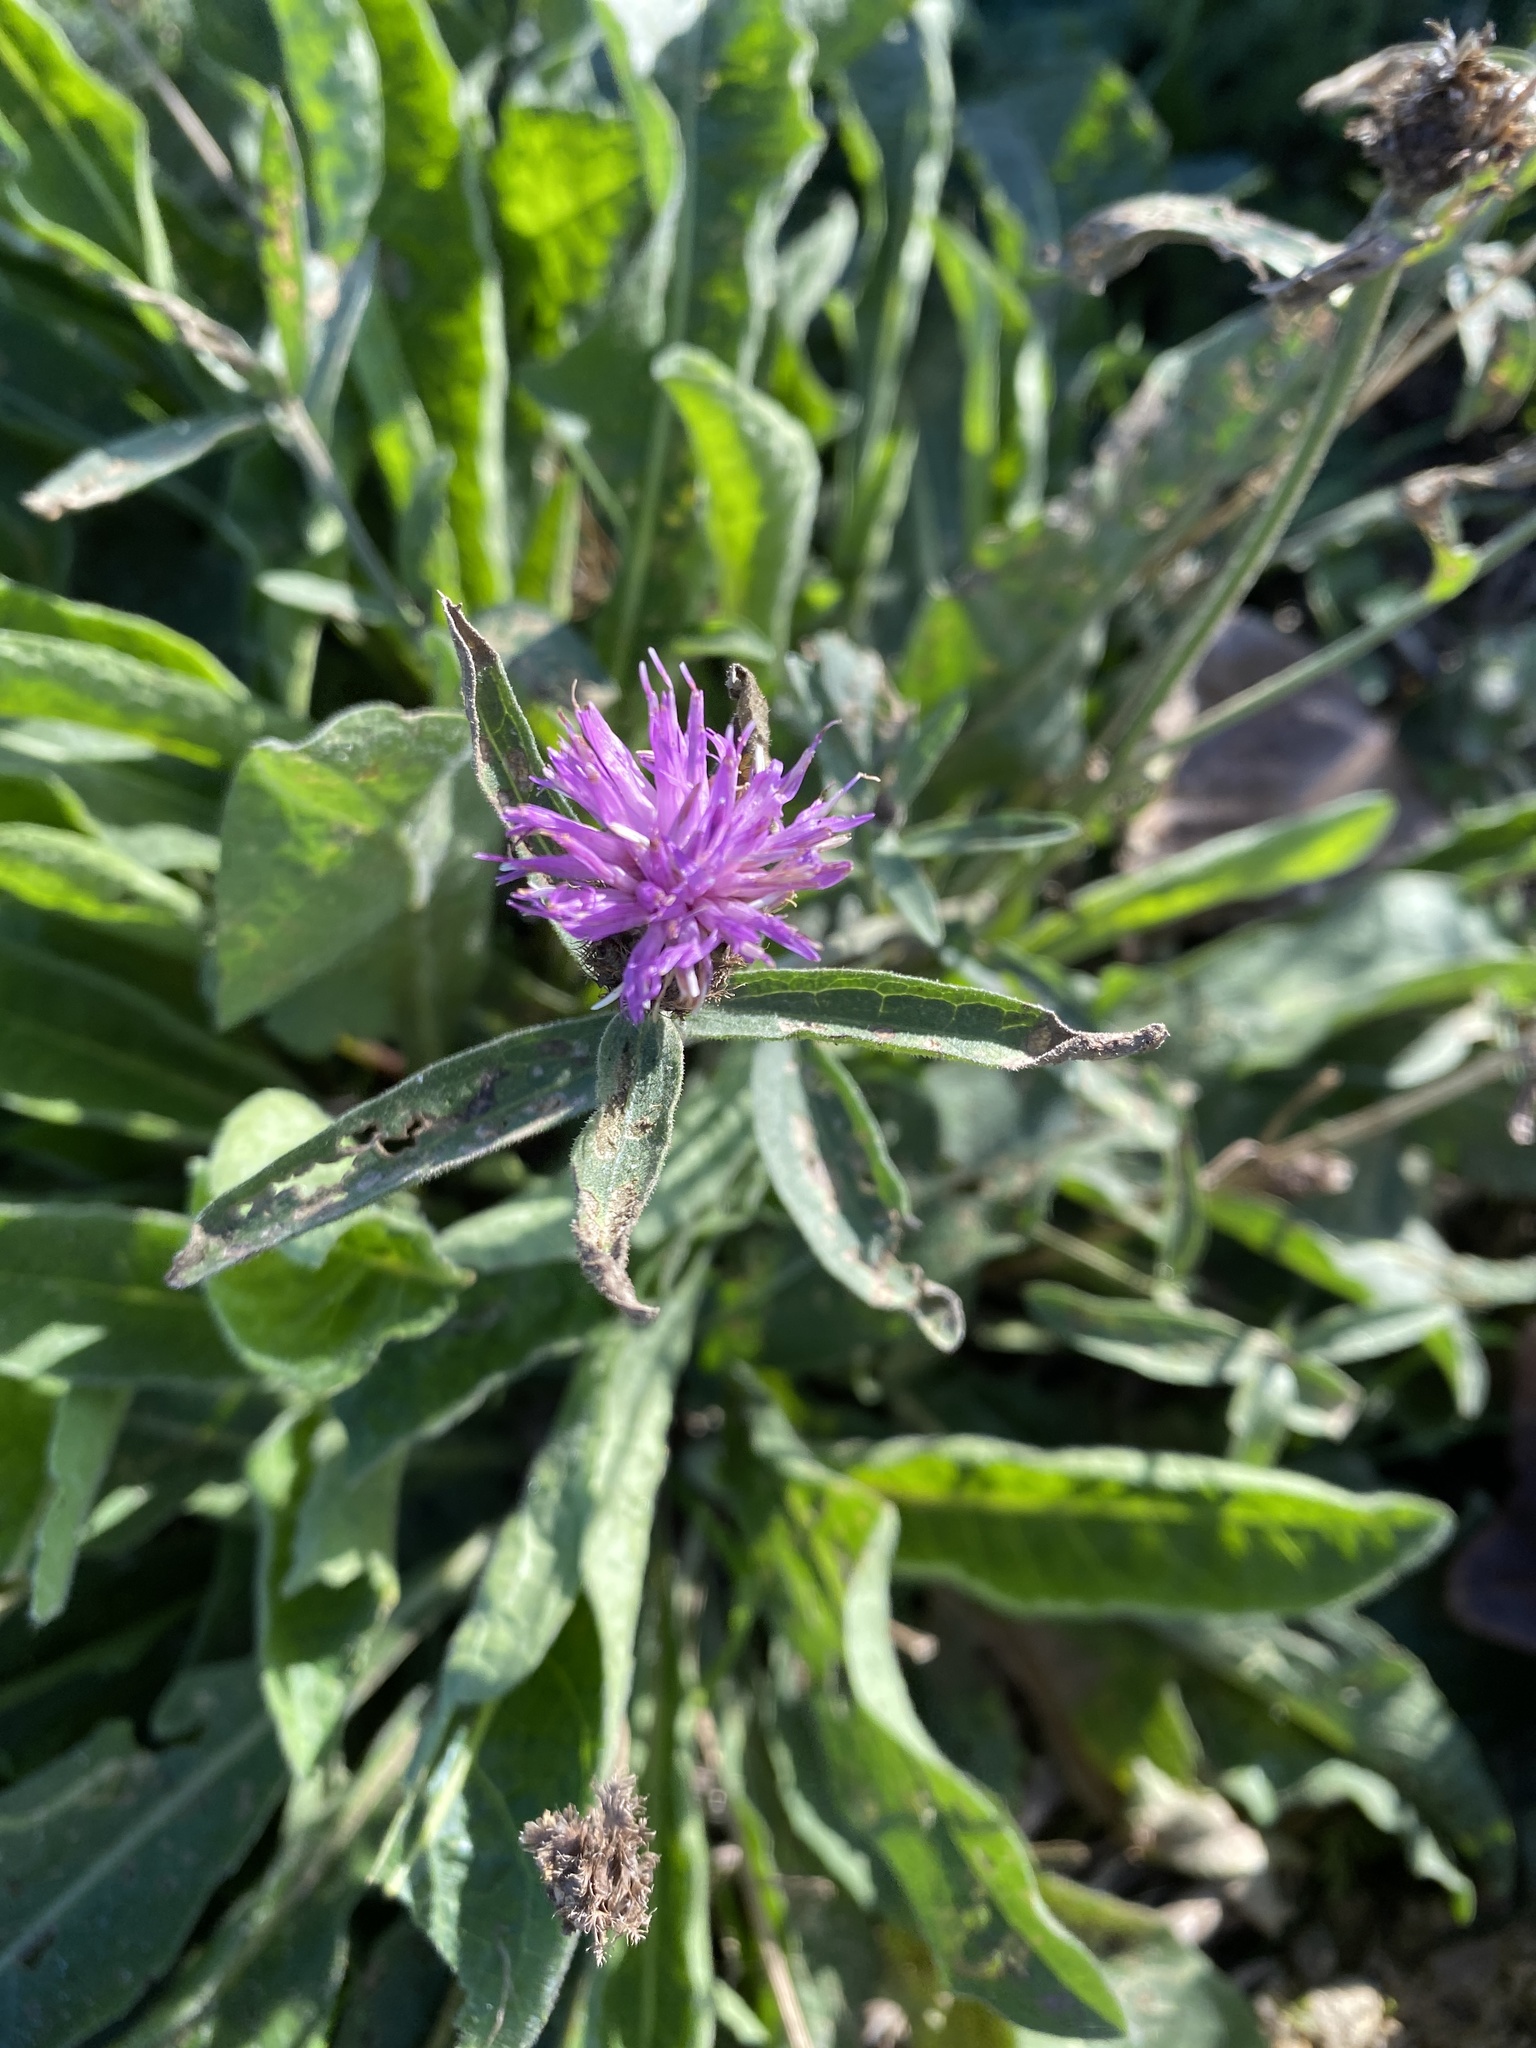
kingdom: Plantae
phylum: Tracheophyta
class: Magnoliopsida
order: Asterales
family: Asteraceae
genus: Centaurea
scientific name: Centaurea nigra
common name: Lesser knapweed
